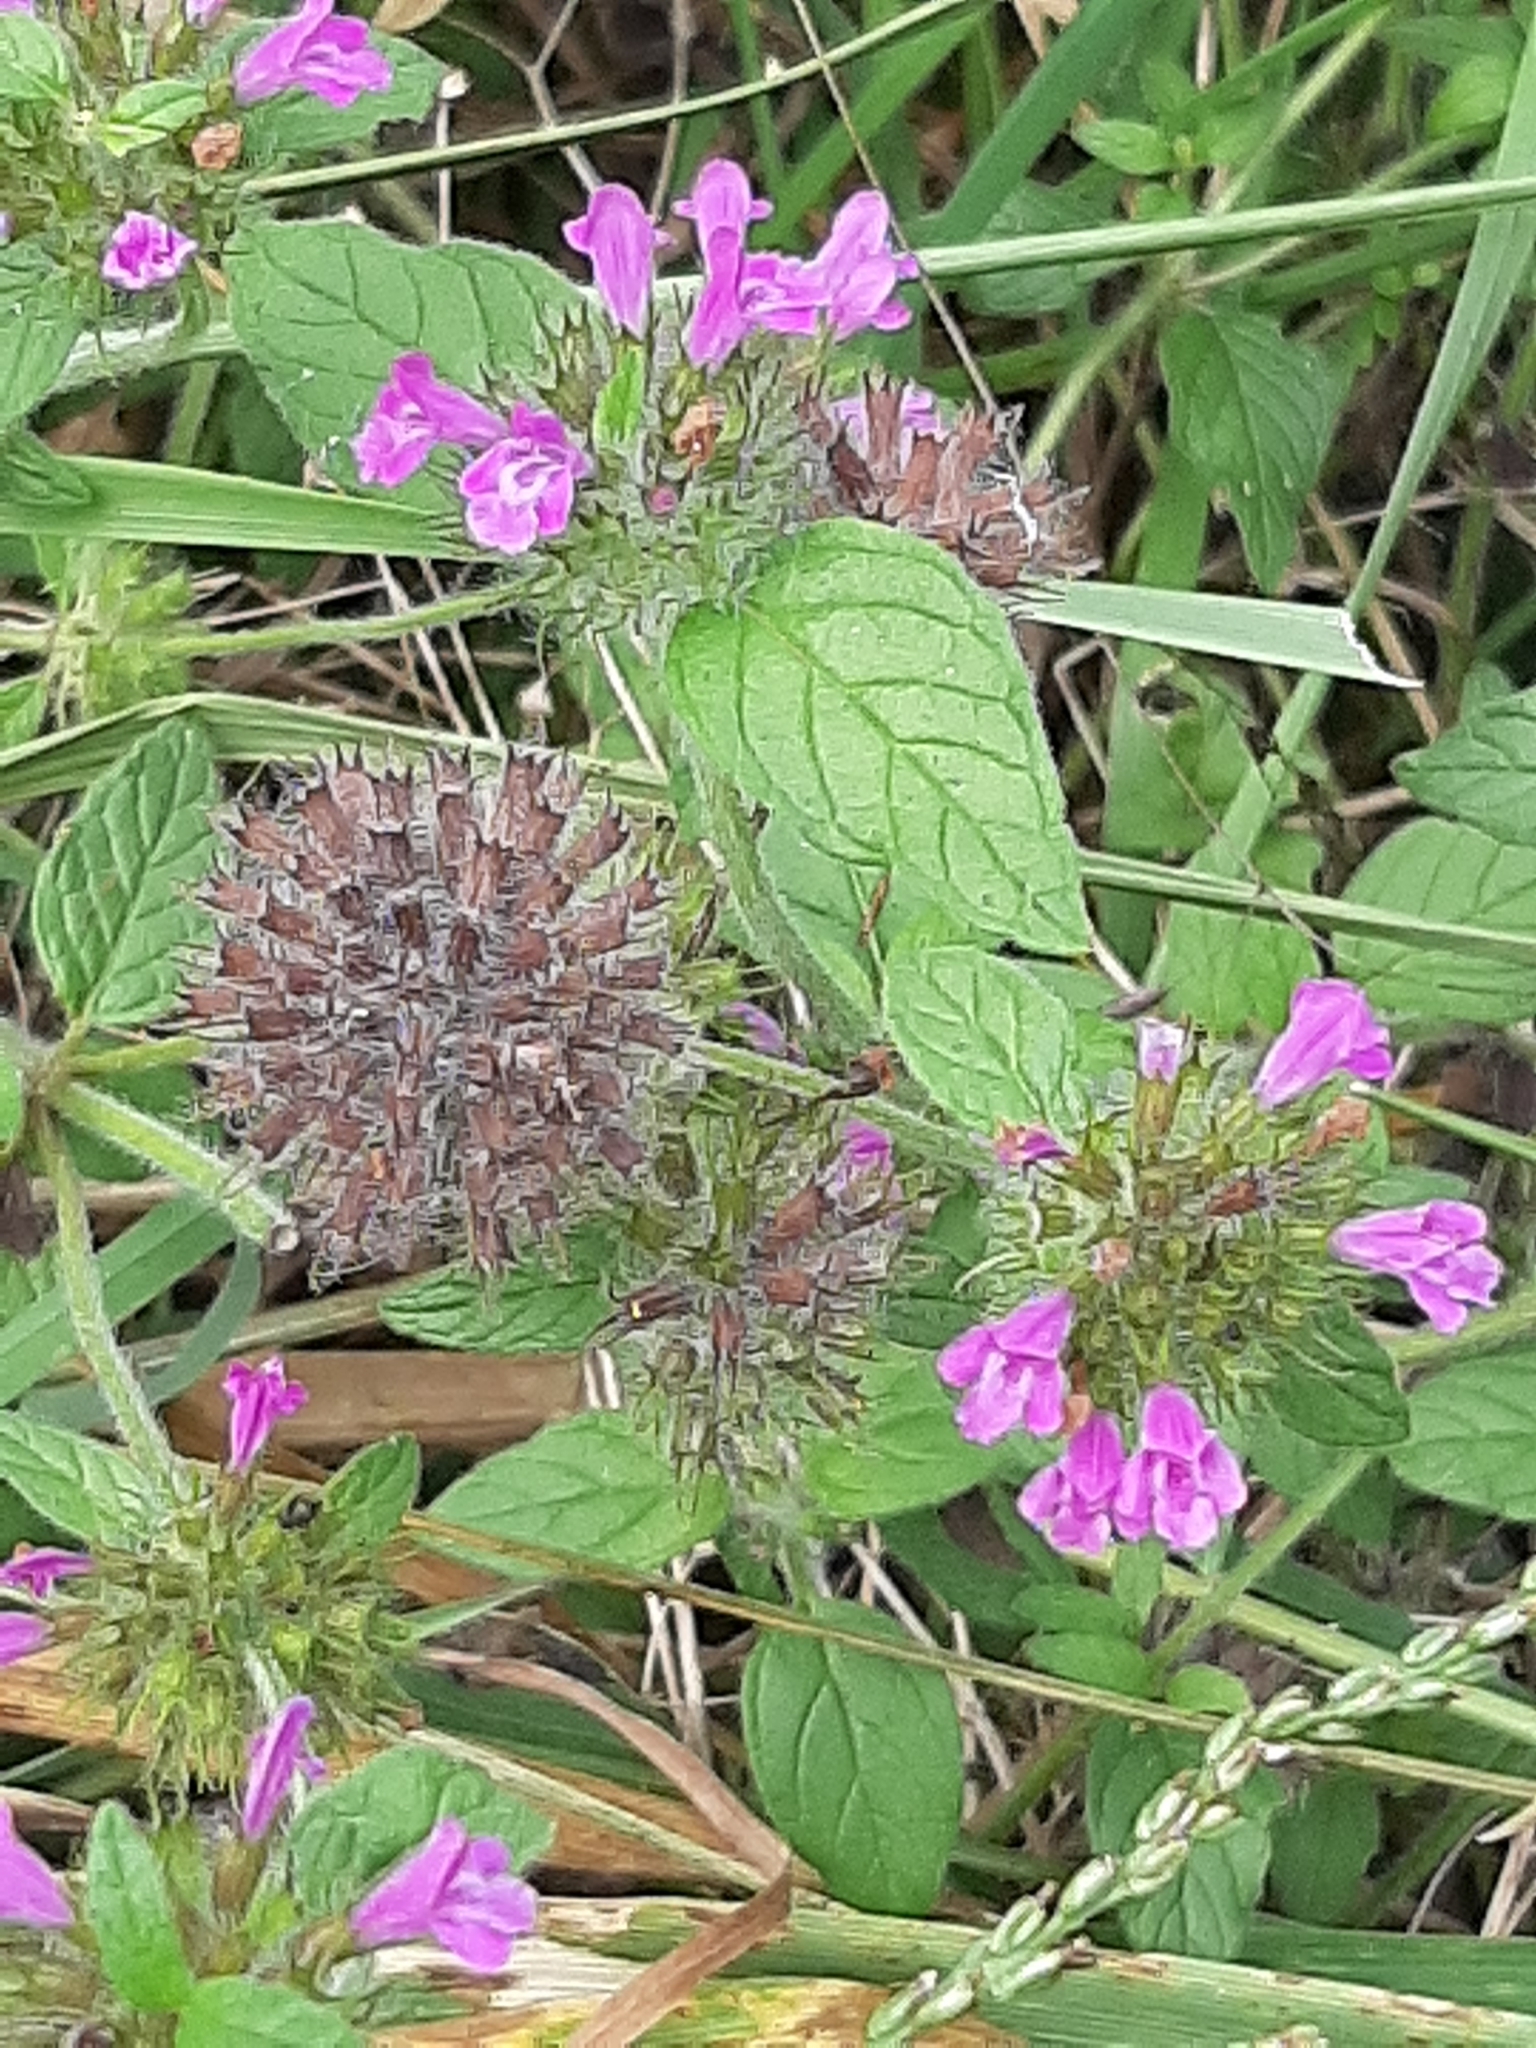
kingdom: Plantae
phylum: Tracheophyta
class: Magnoliopsida
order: Lamiales
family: Lamiaceae
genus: Clinopodium
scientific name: Clinopodium vulgare
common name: Wild basil
